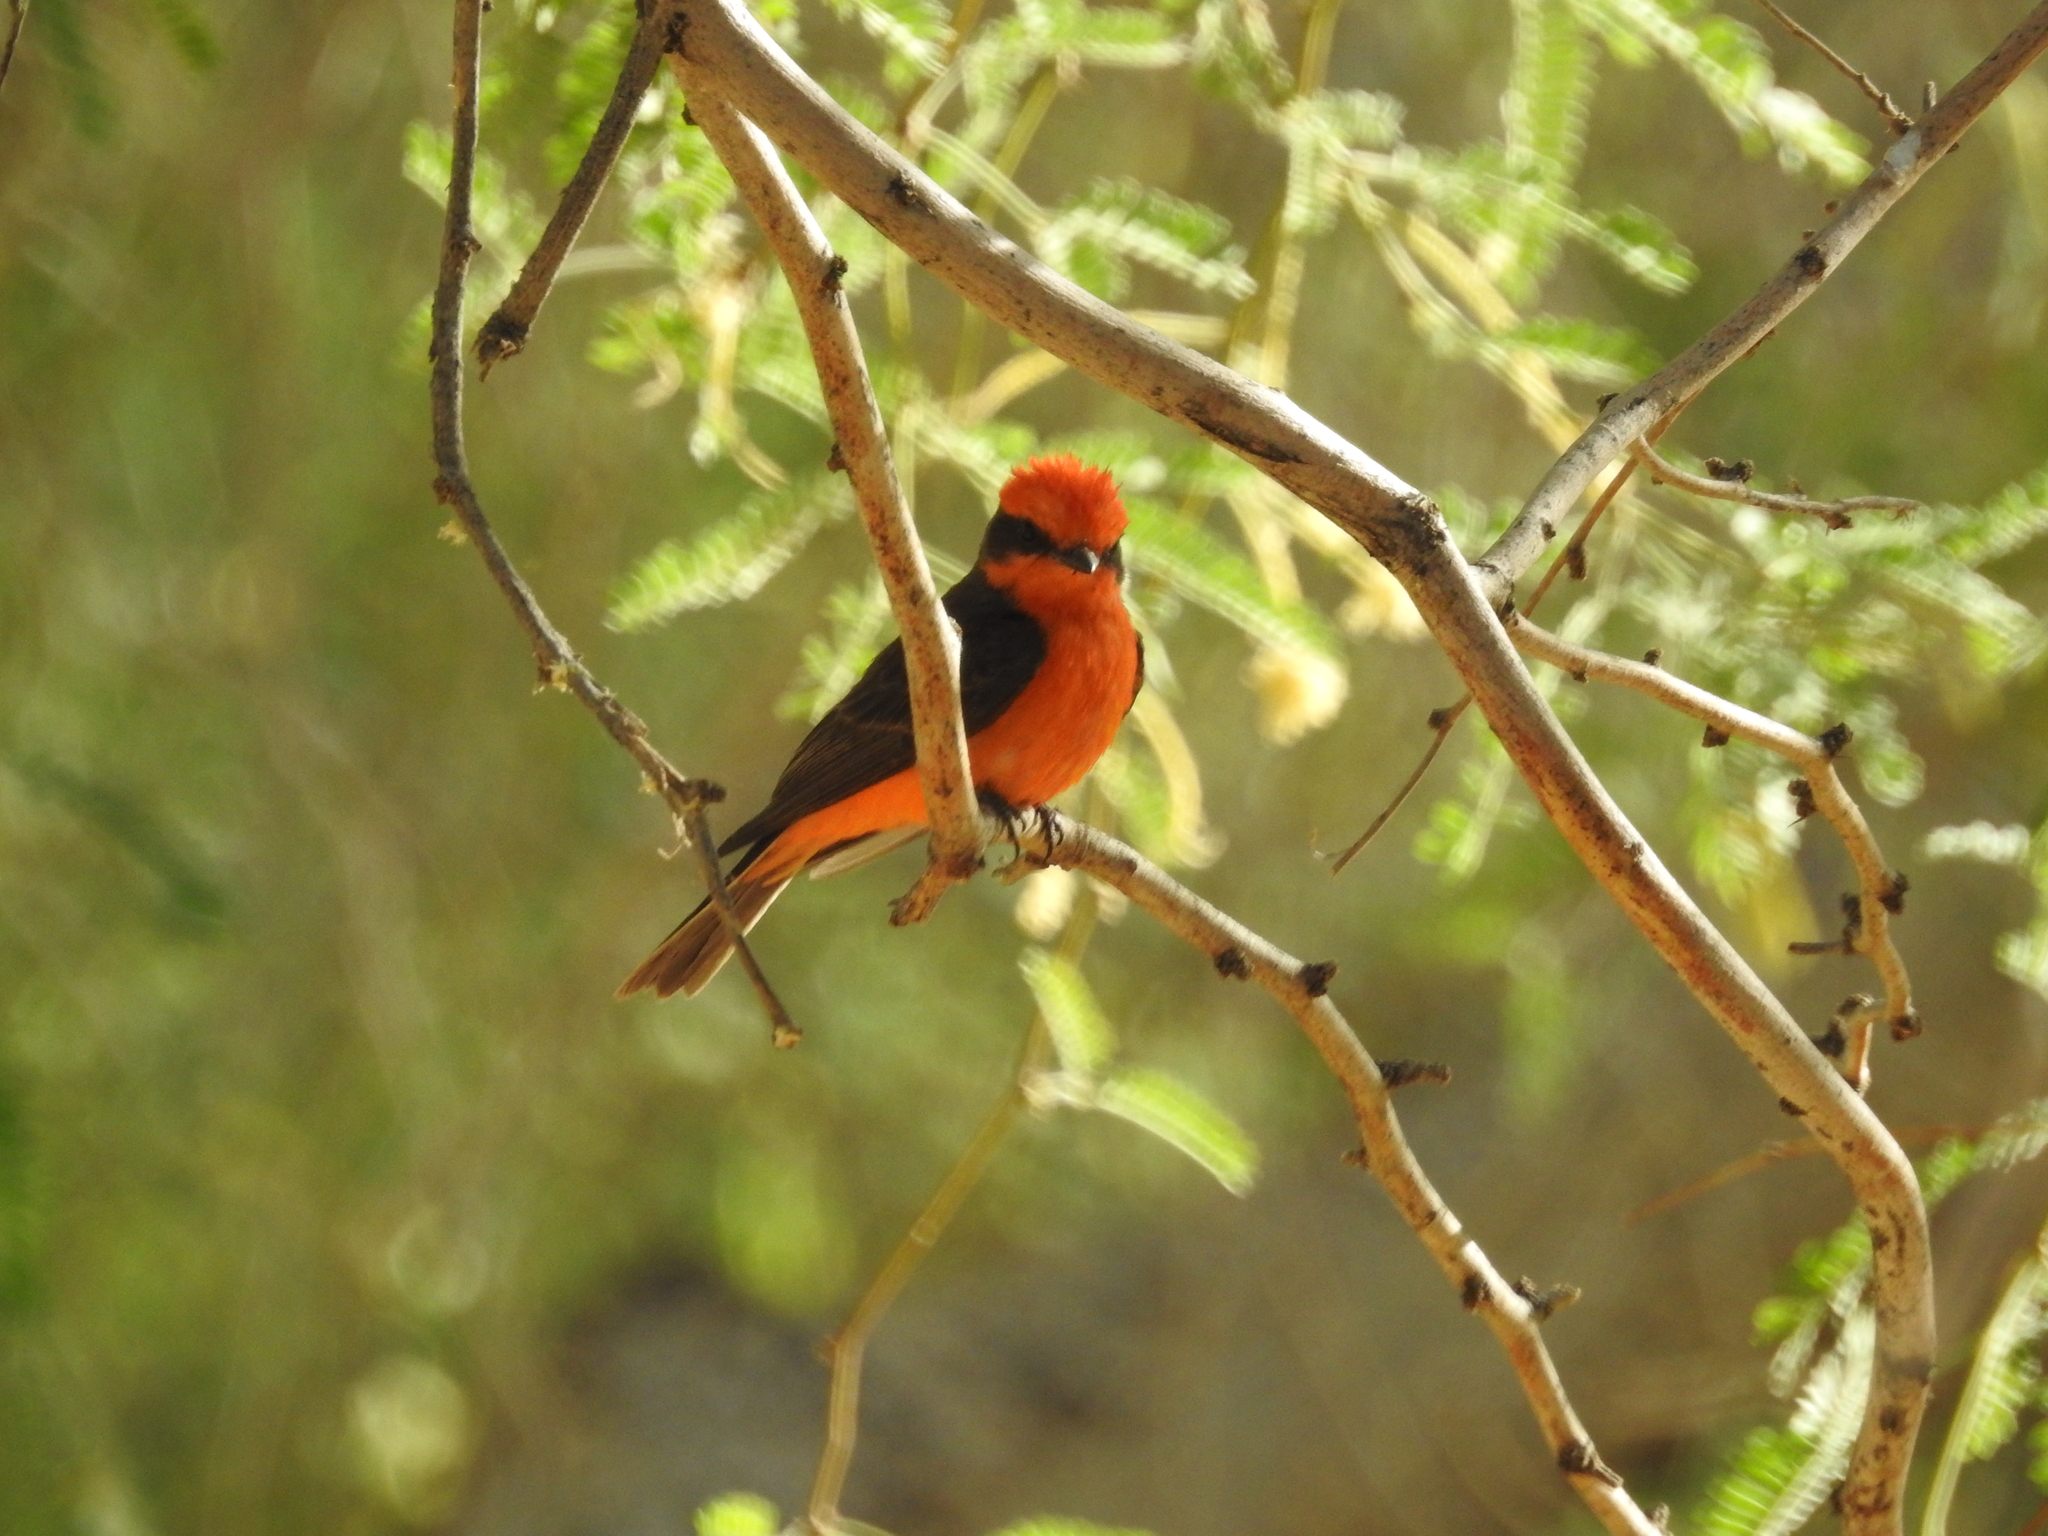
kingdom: Animalia
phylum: Chordata
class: Aves
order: Passeriformes
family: Tyrannidae
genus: Pyrocephalus
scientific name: Pyrocephalus rubinus
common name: Vermilion flycatcher
